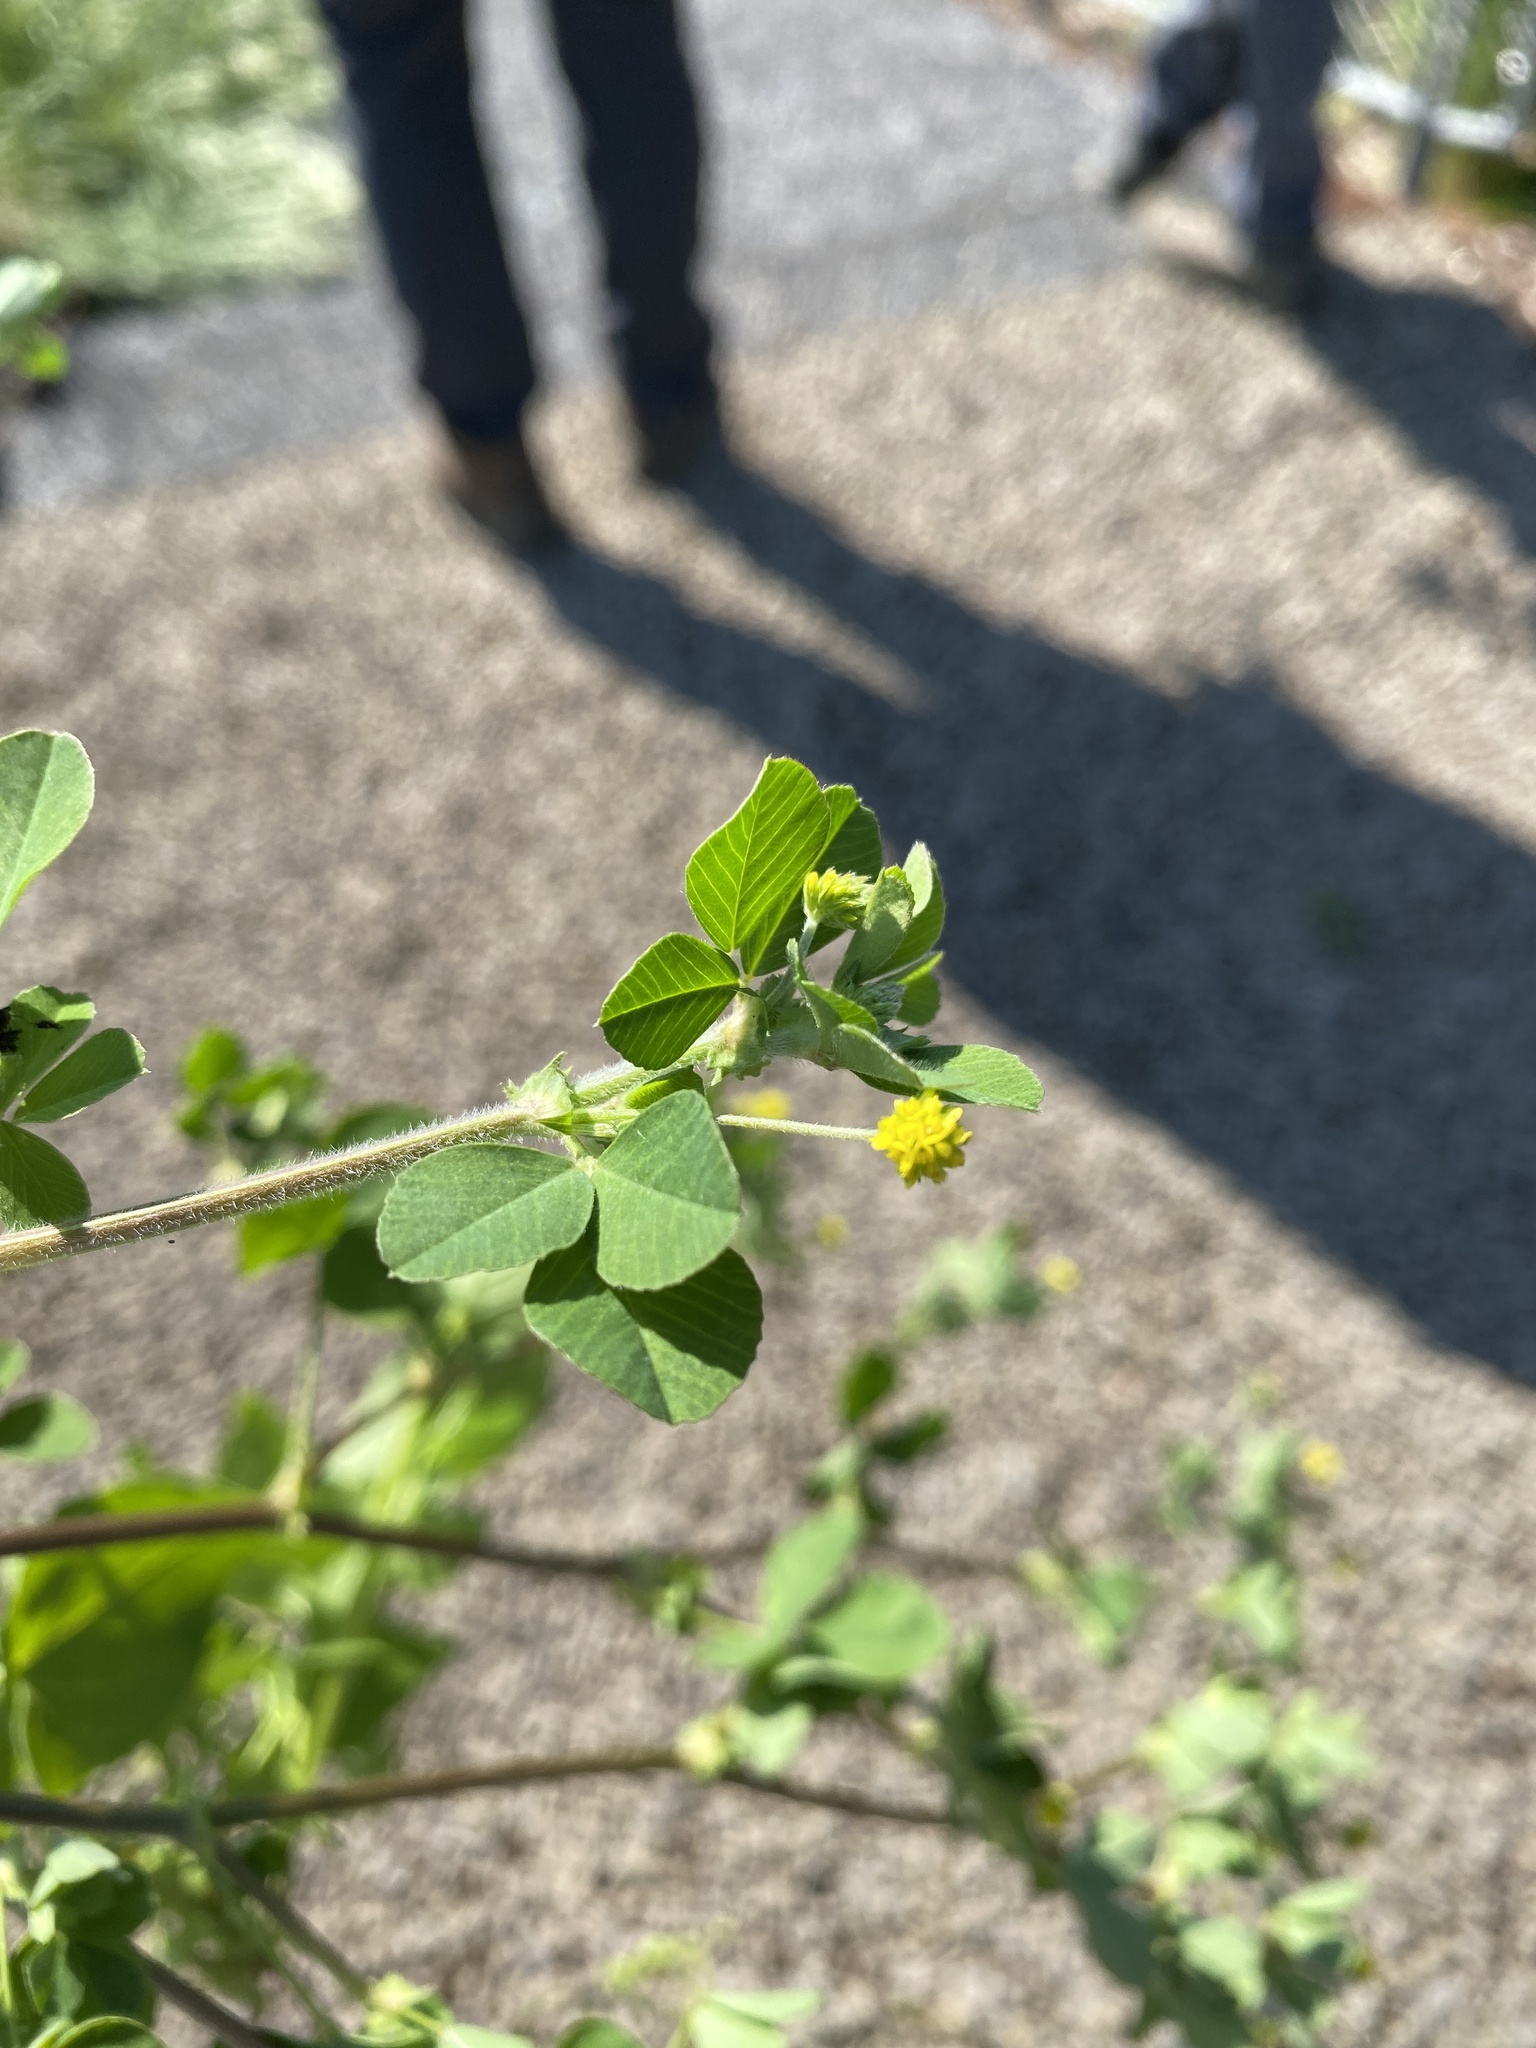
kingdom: Plantae
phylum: Tracheophyta
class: Magnoliopsida
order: Fabales
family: Fabaceae
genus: Medicago
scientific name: Medicago lupulina
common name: Black medick
